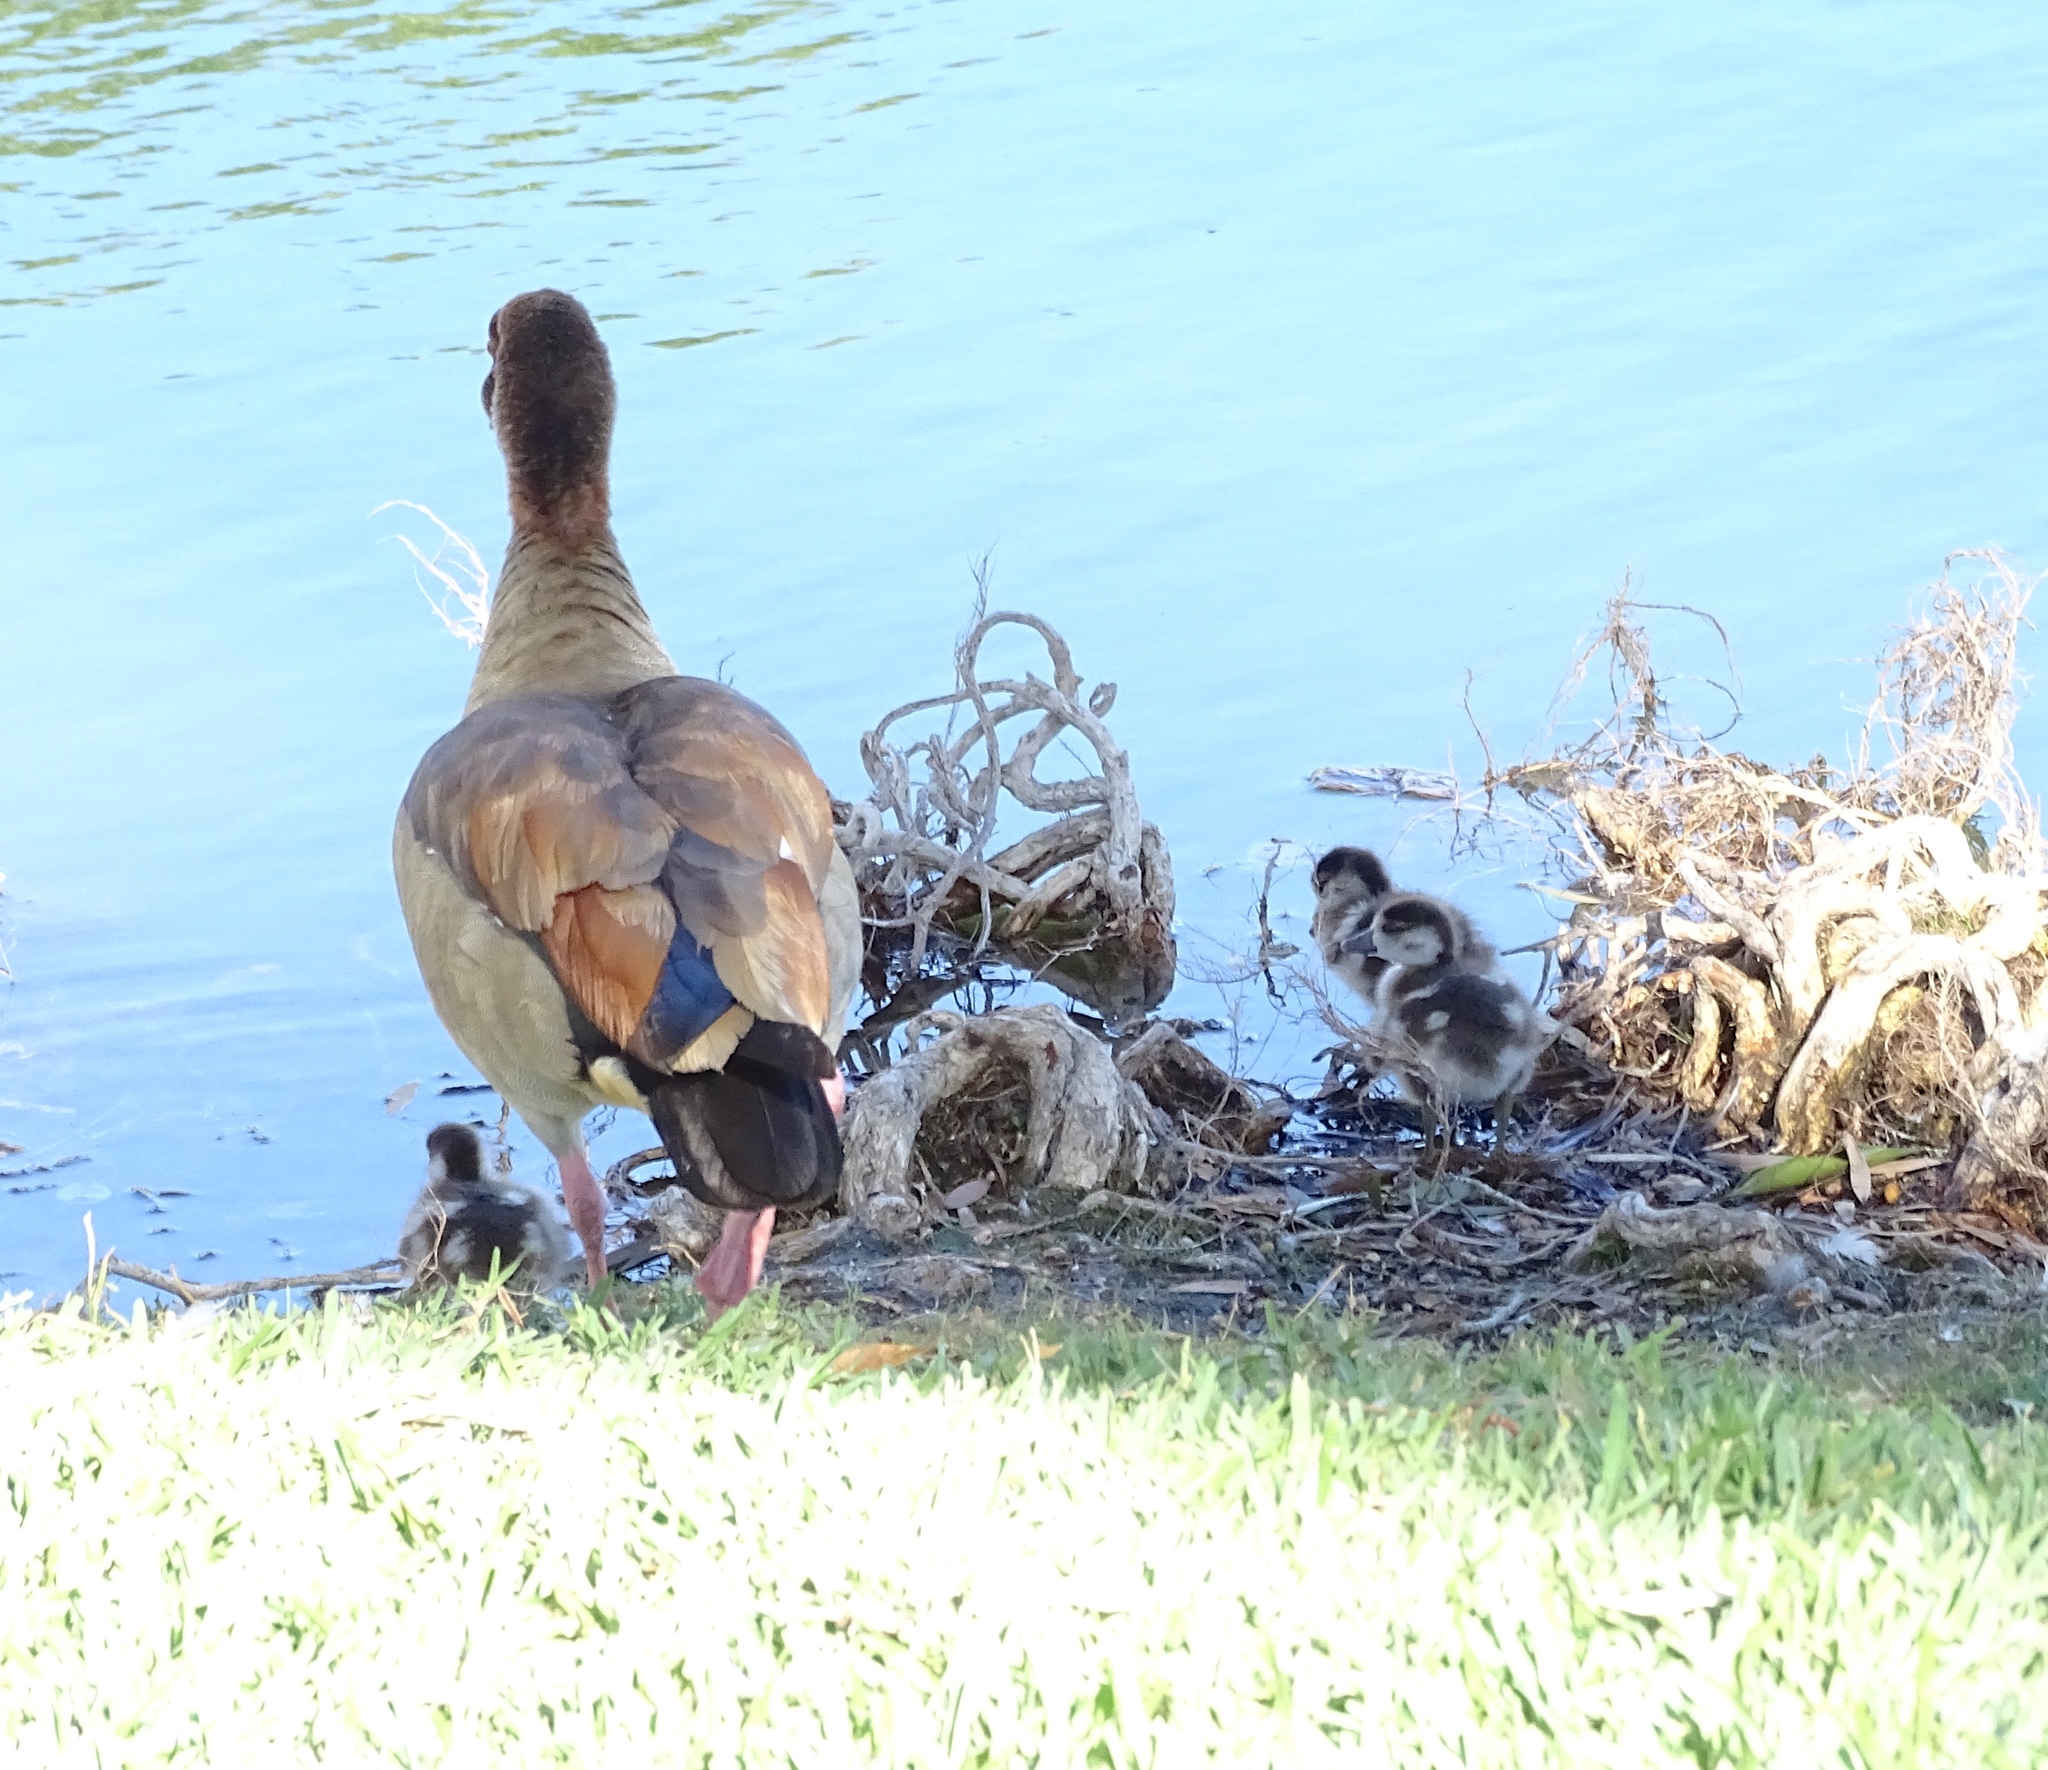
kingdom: Animalia
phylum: Chordata
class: Aves
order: Anseriformes
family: Anatidae
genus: Alopochen
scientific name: Alopochen aegyptiaca
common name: Egyptian goose
